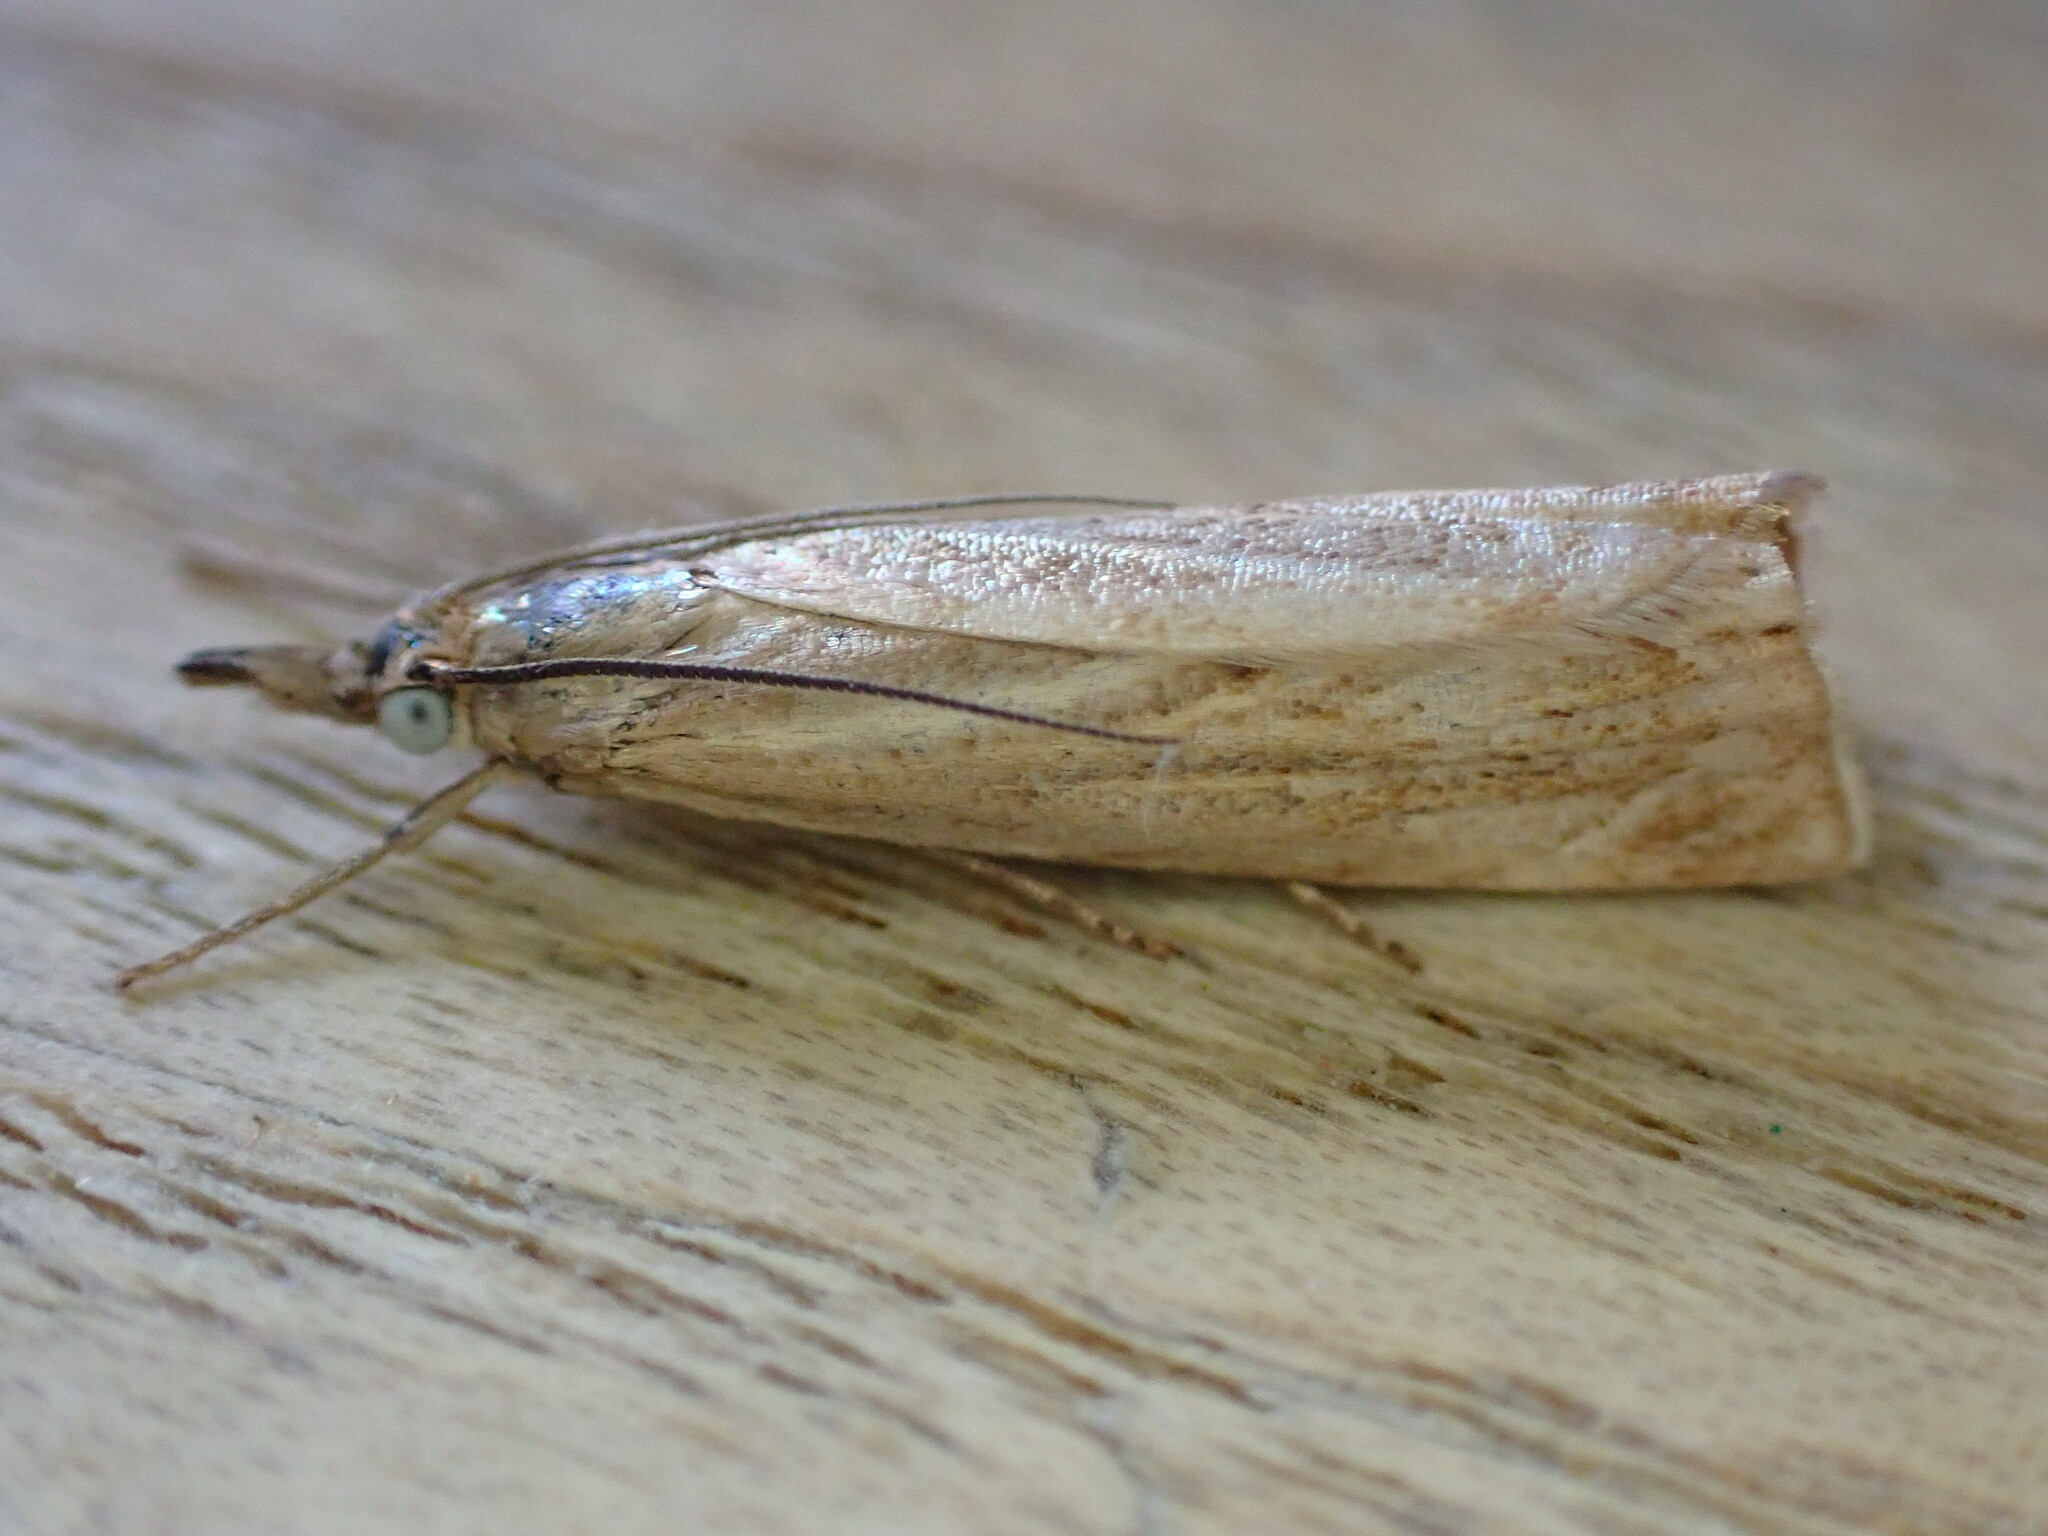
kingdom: Animalia
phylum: Arthropoda
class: Insecta
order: Lepidoptera
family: Crambidae
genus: Chrysoteuchia
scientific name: Chrysoteuchia culmella
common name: Garden grass-veneer
